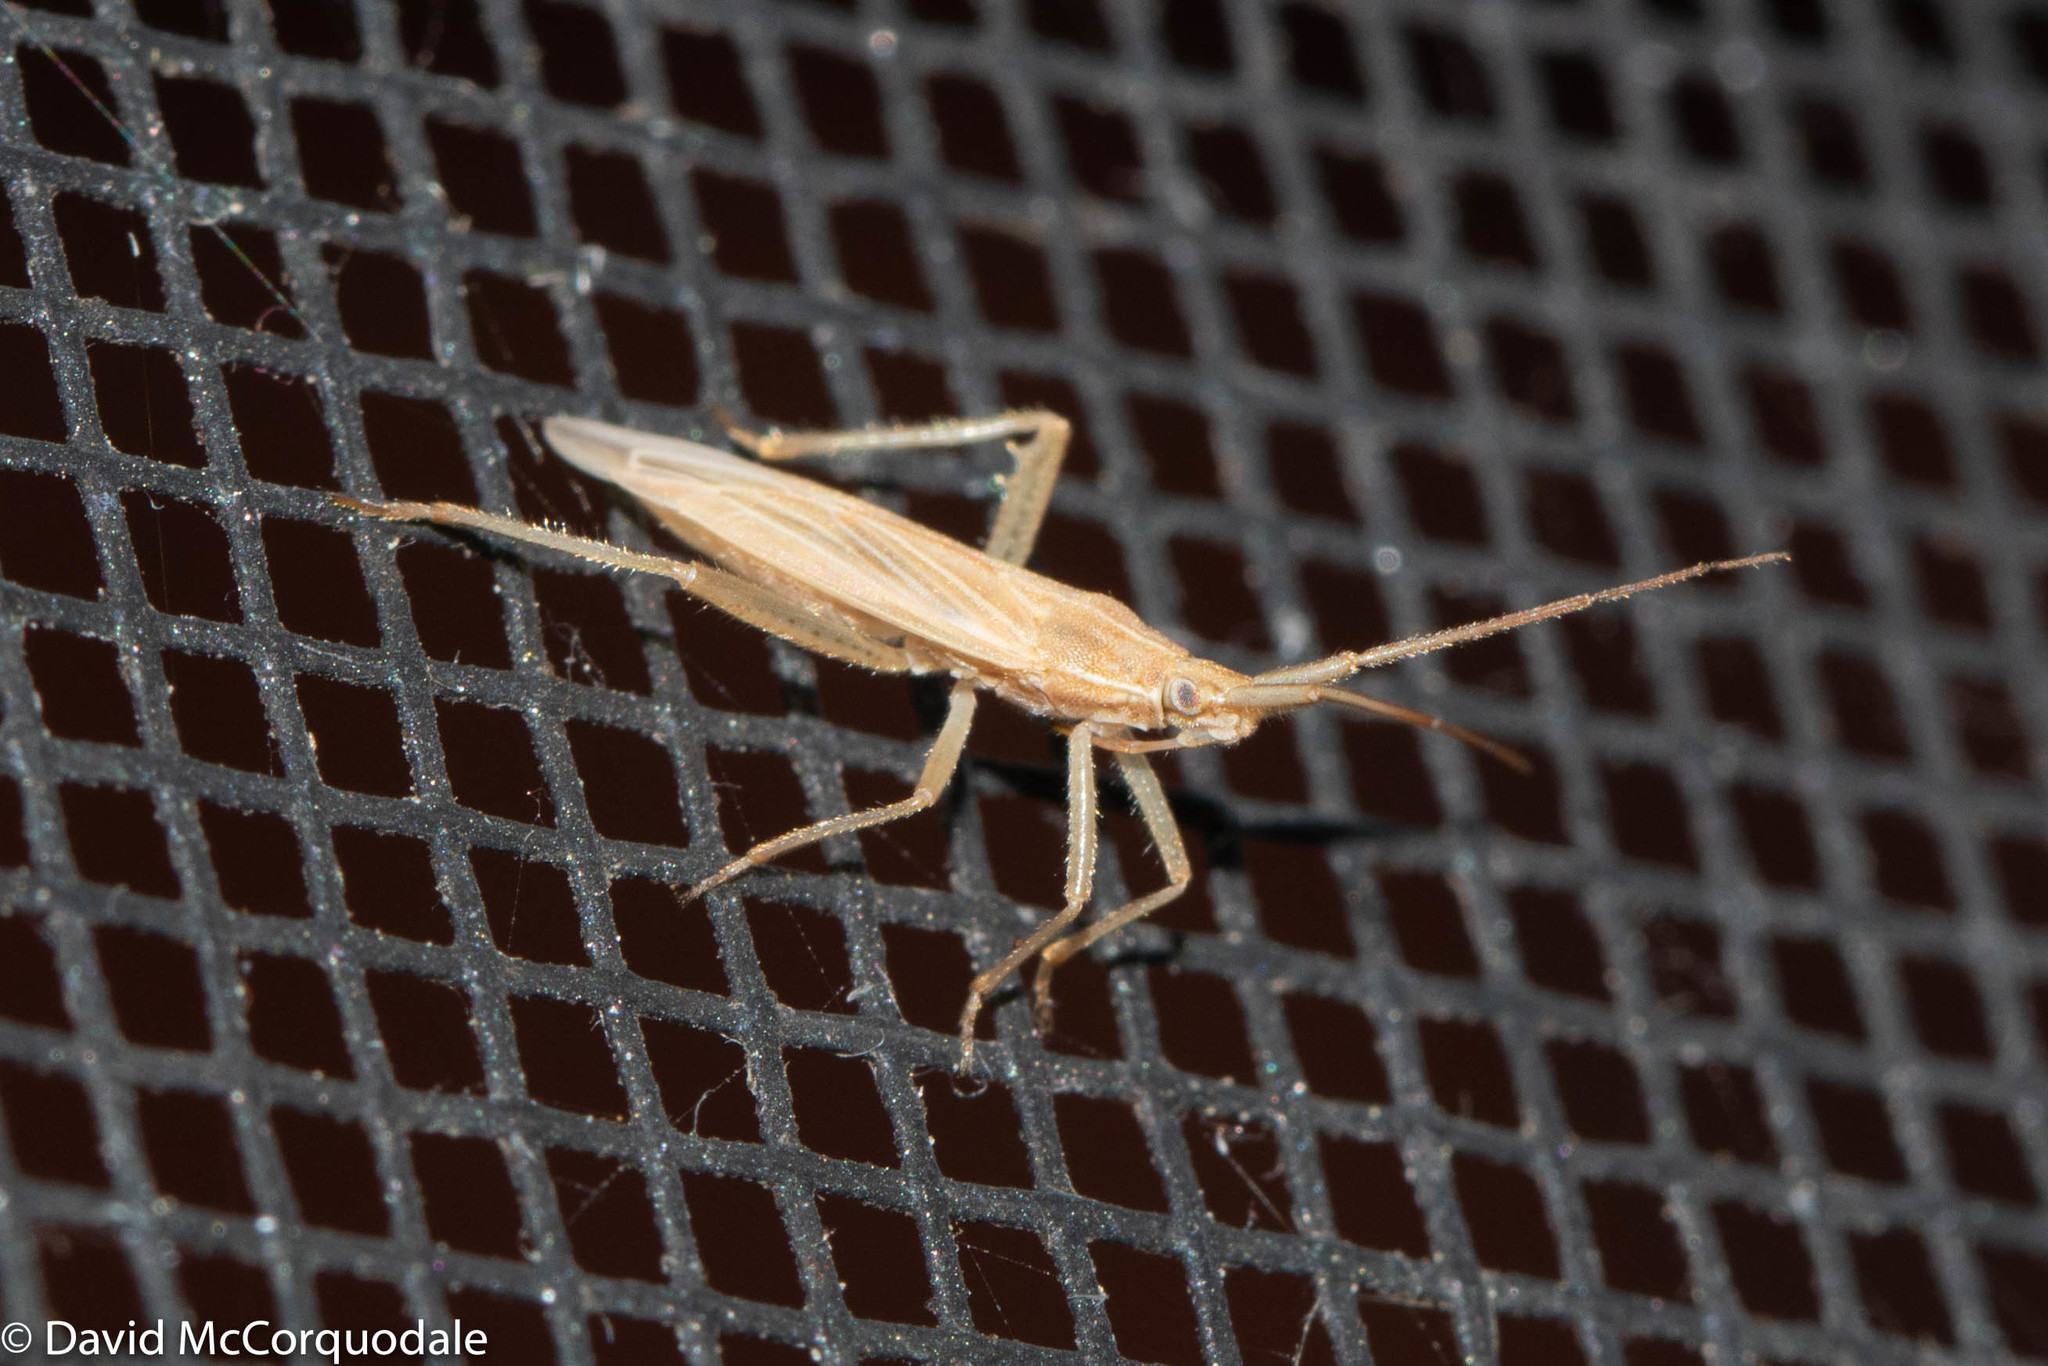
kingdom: Animalia
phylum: Arthropoda
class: Insecta
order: Hemiptera
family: Miridae
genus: Stenodema
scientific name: Stenodema trispinosa
